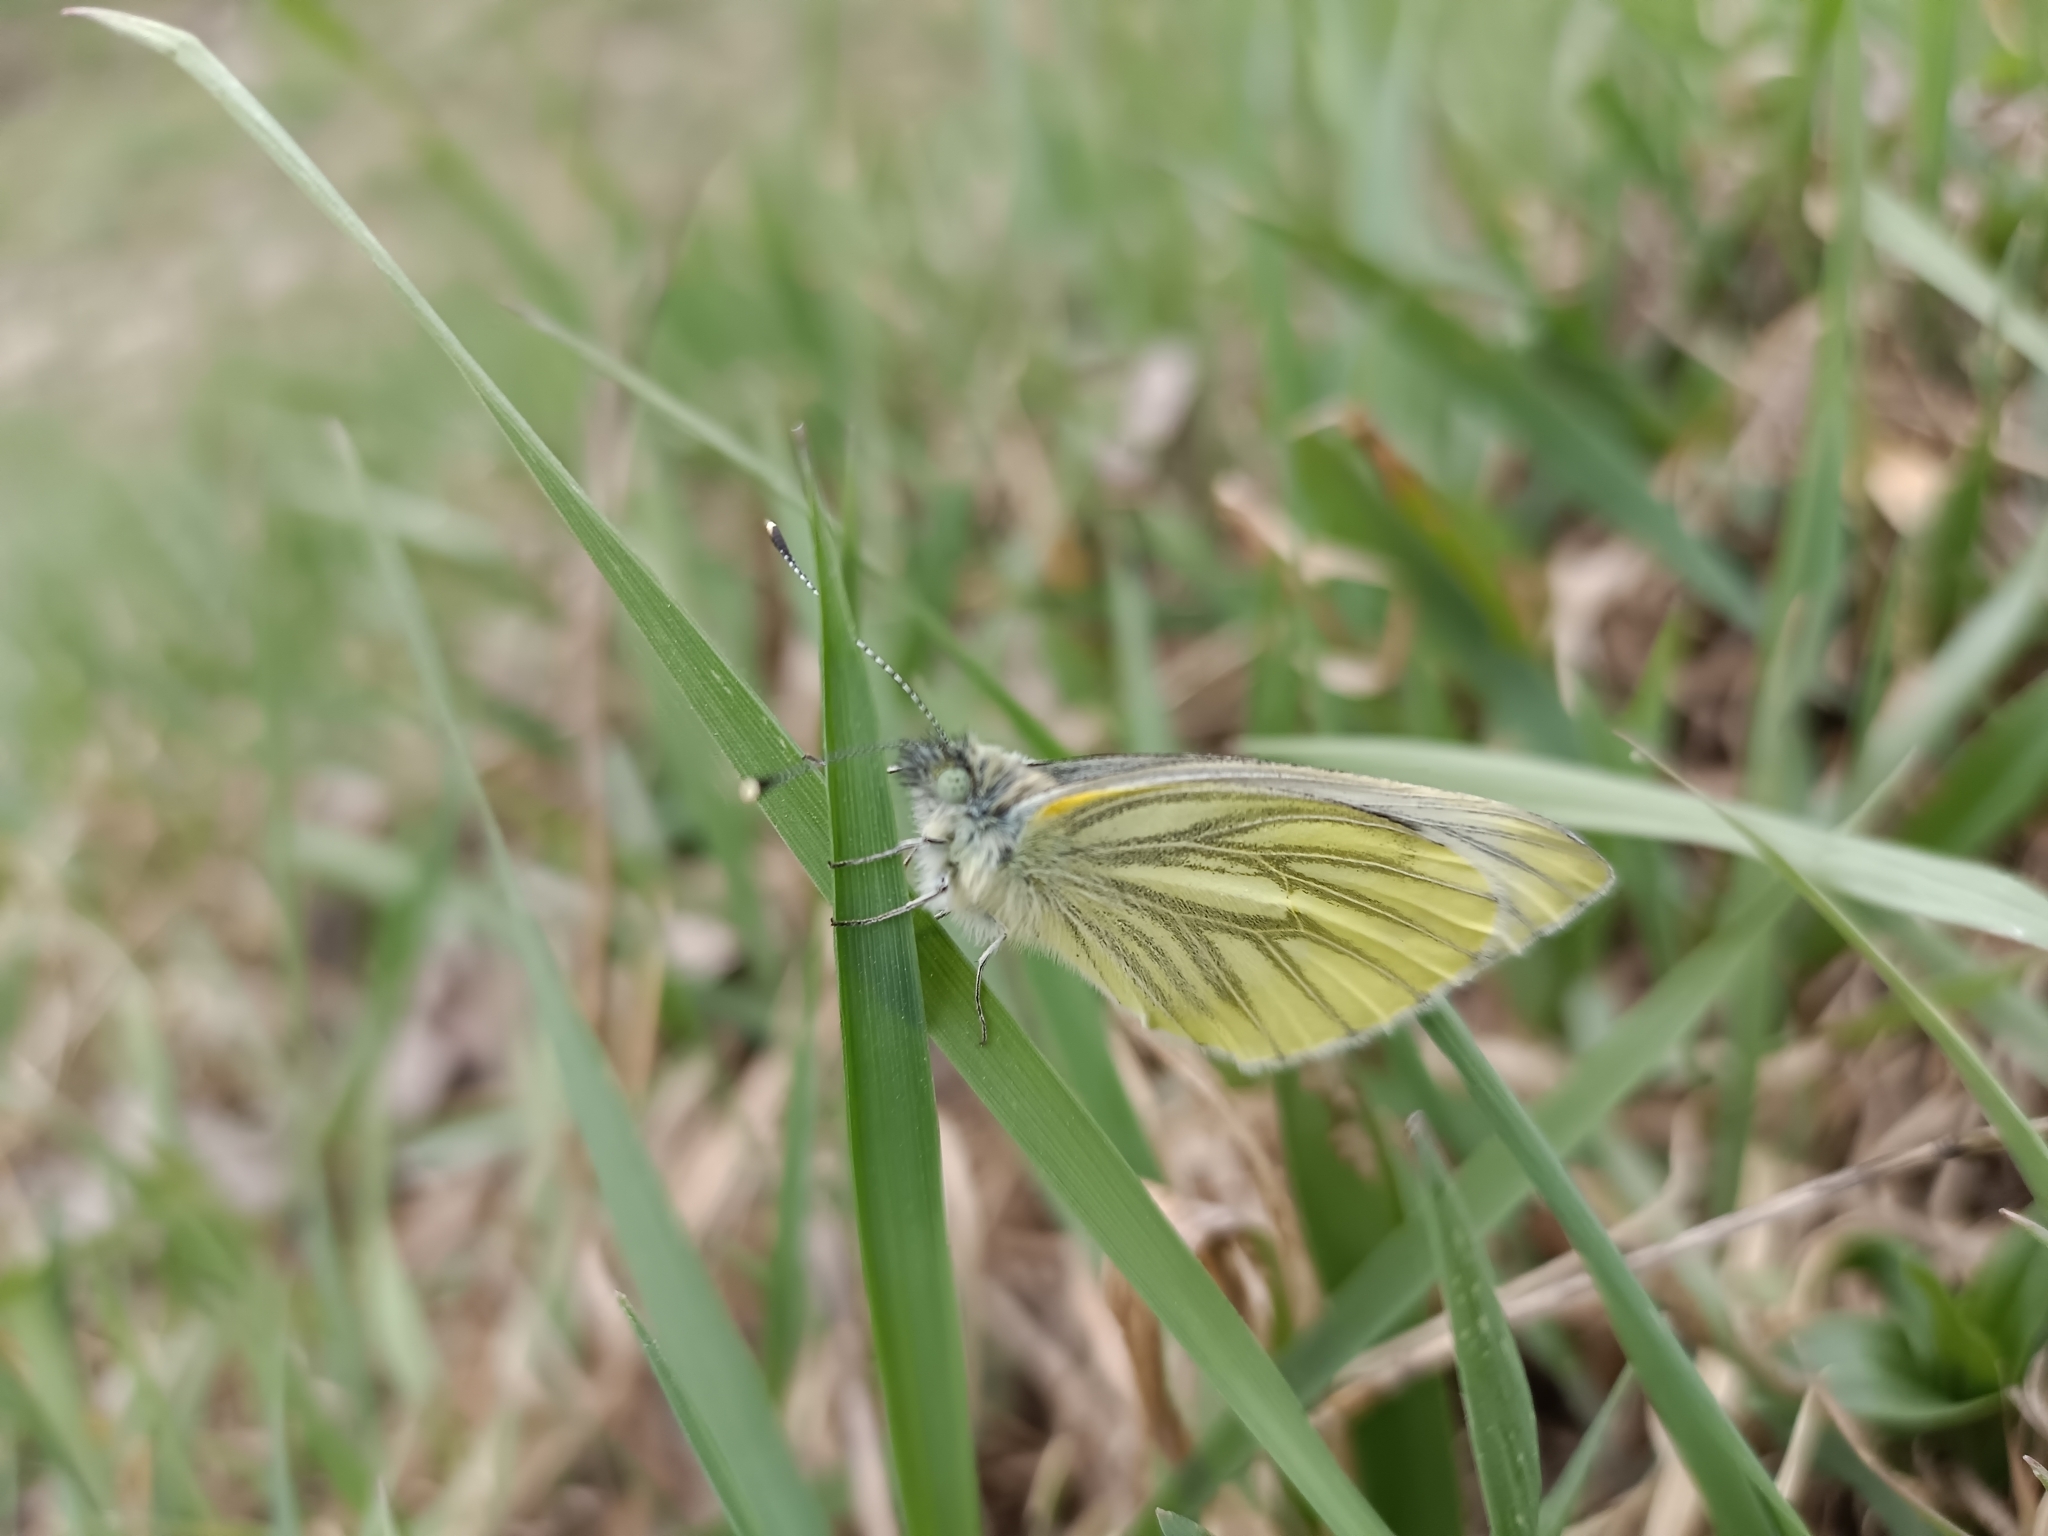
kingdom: Animalia
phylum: Arthropoda
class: Insecta
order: Lepidoptera
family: Pieridae
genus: Pieris
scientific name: Pieris napi
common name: Green-veined white
